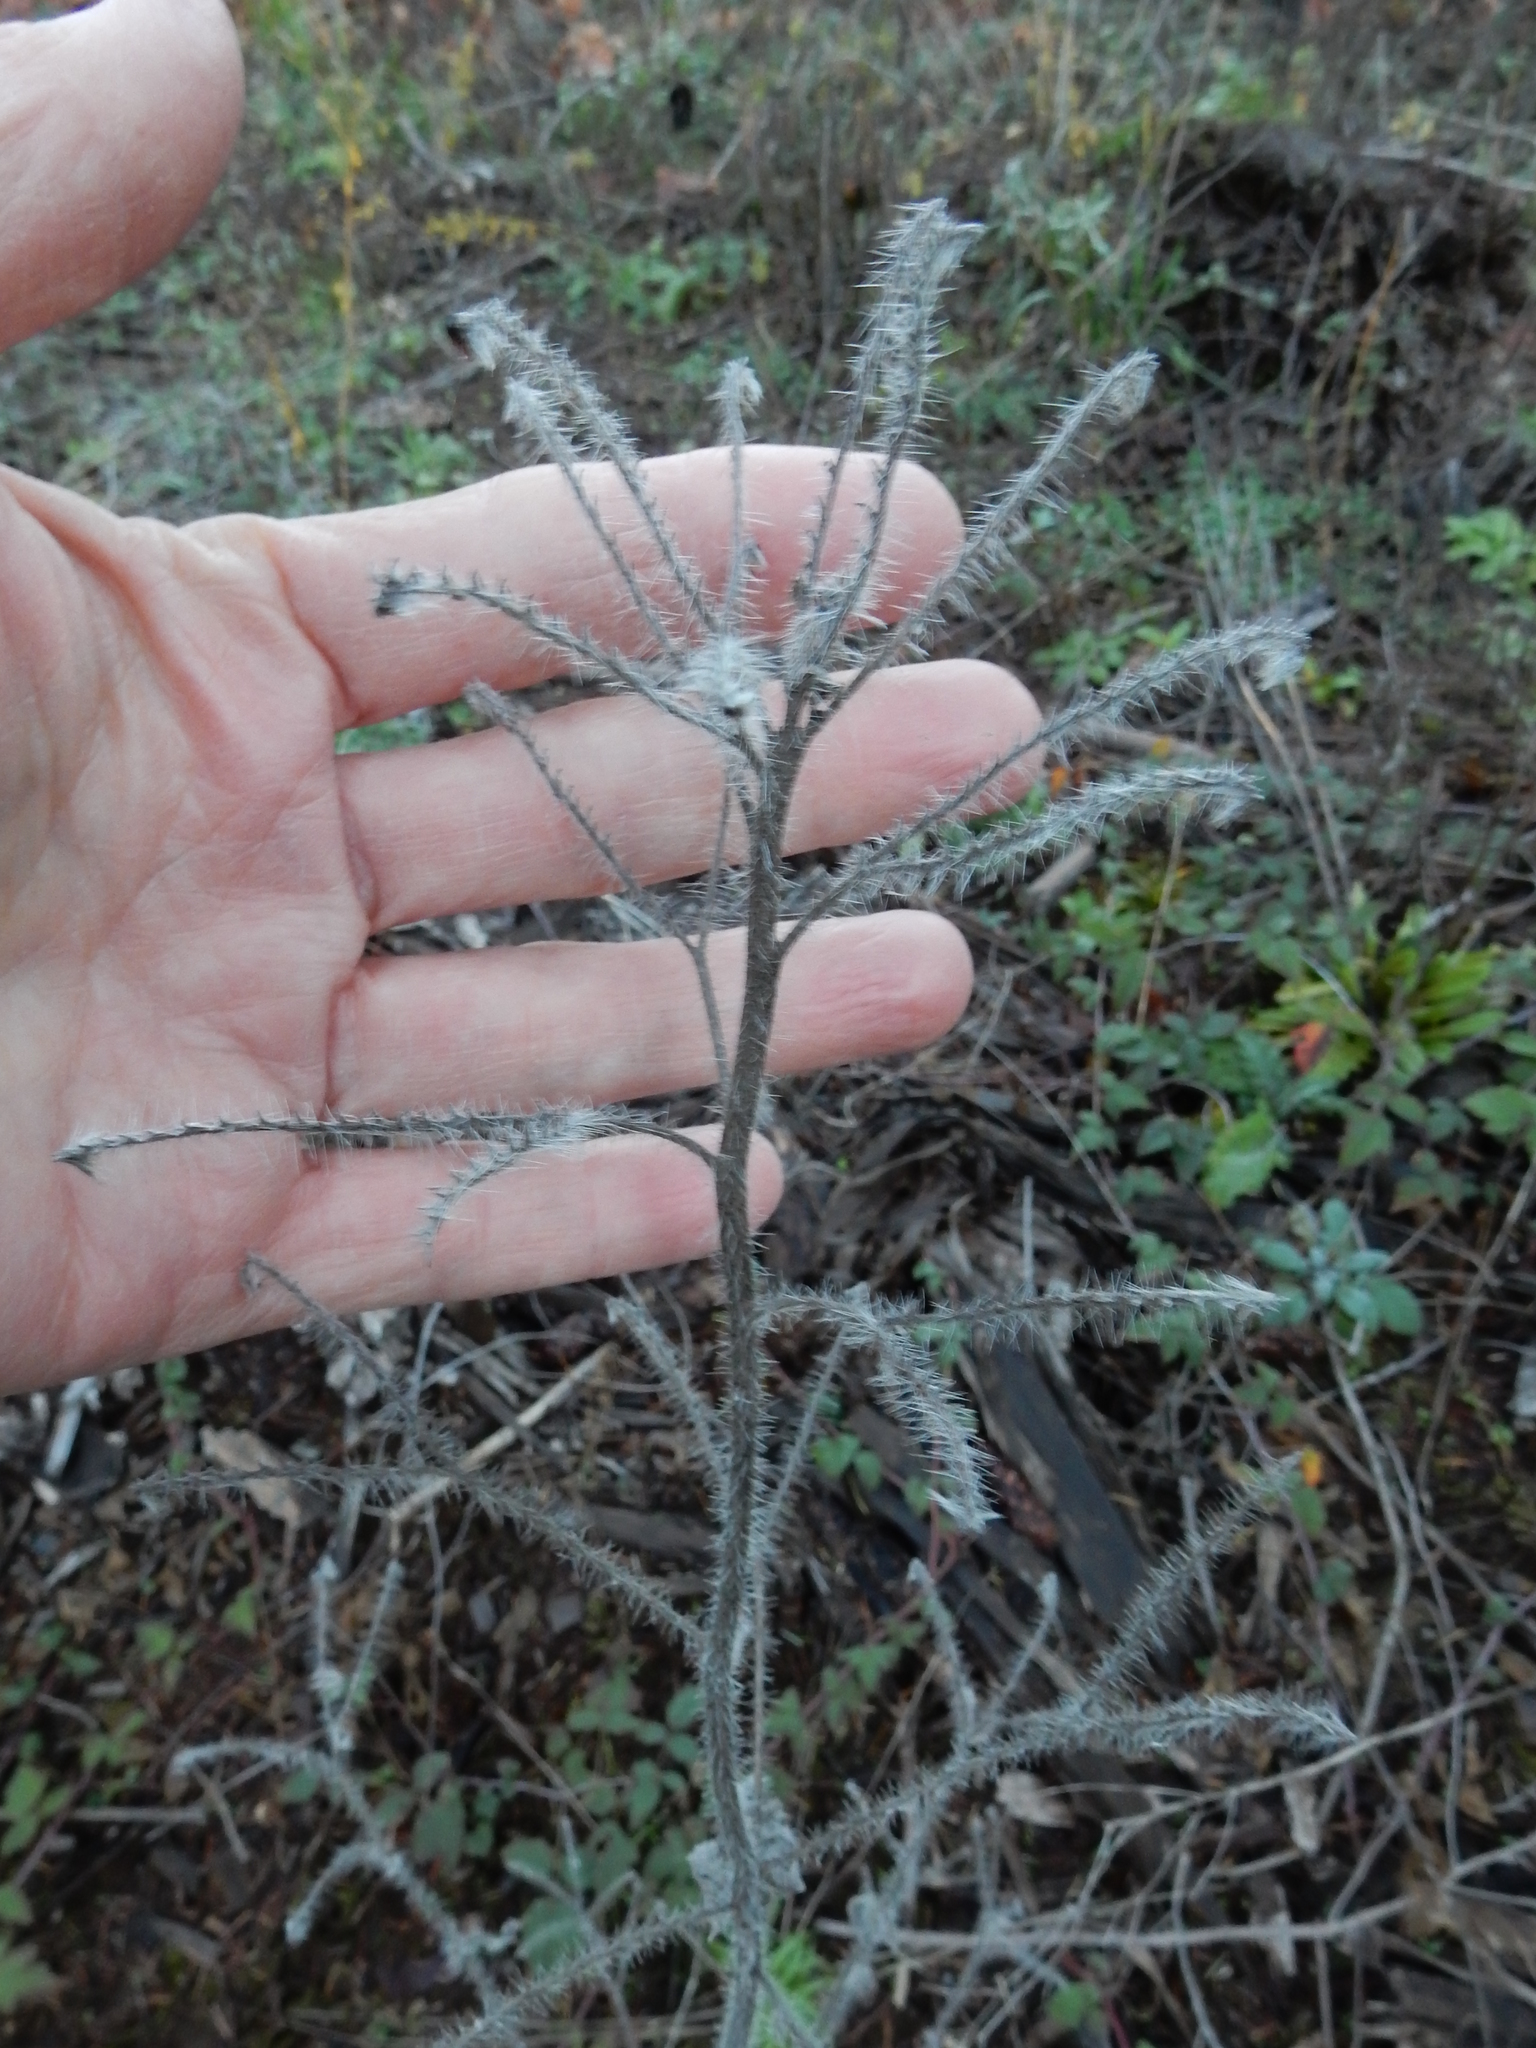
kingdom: Plantae
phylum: Tracheophyta
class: Magnoliopsida
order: Boraginales
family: Hydrophyllaceae
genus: Phacelia
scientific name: Phacelia nemoralis
